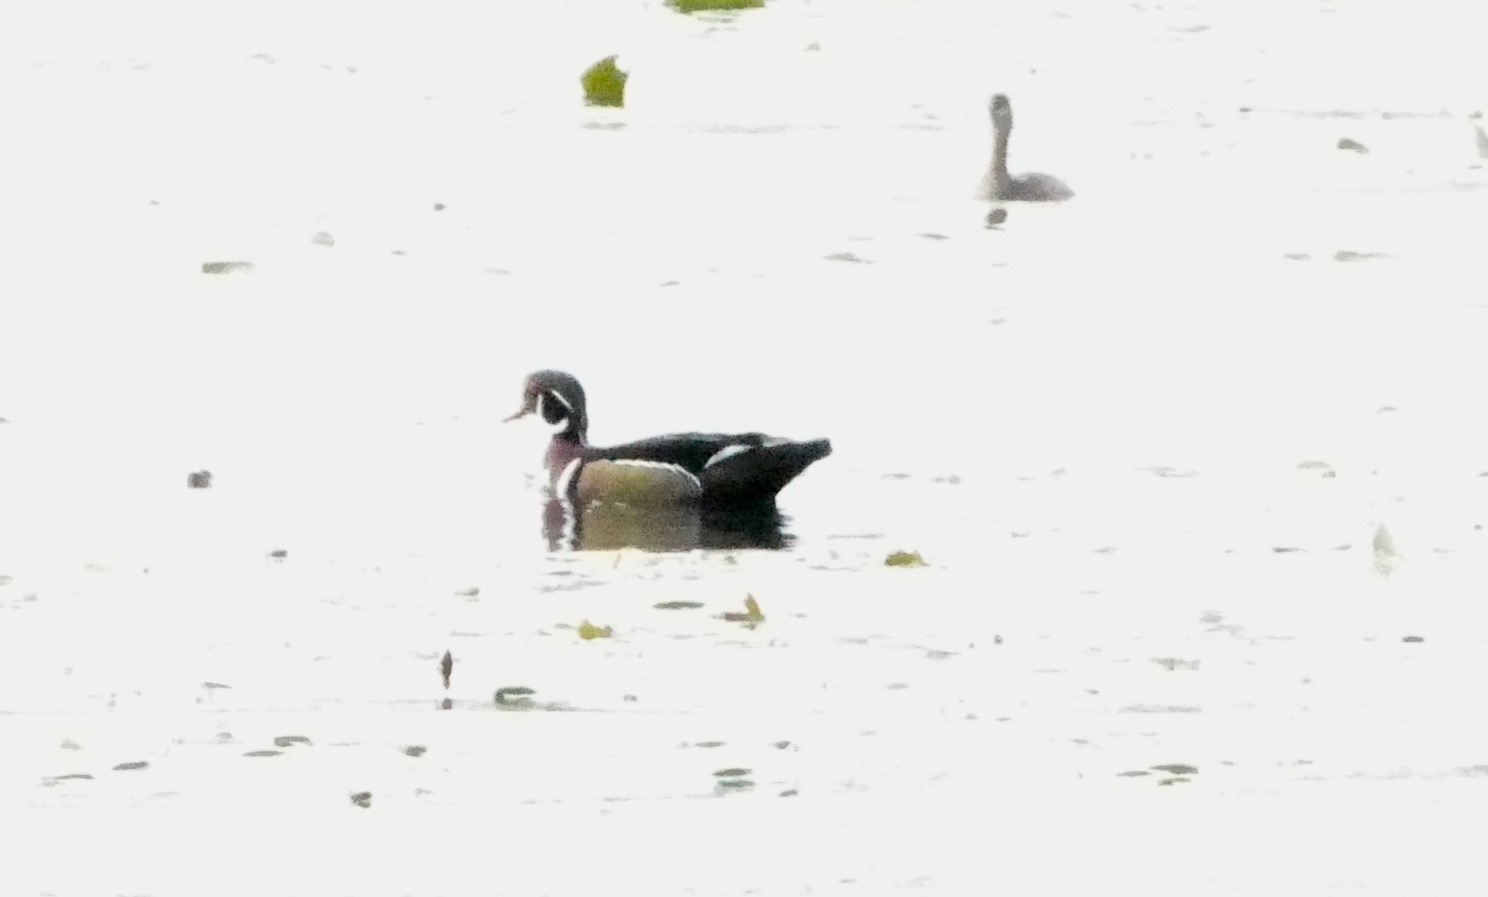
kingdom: Animalia
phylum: Chordata
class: Aves
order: Anseriformes
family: Anatidae
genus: Aix
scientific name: Aix sponsa
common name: Wood duck
